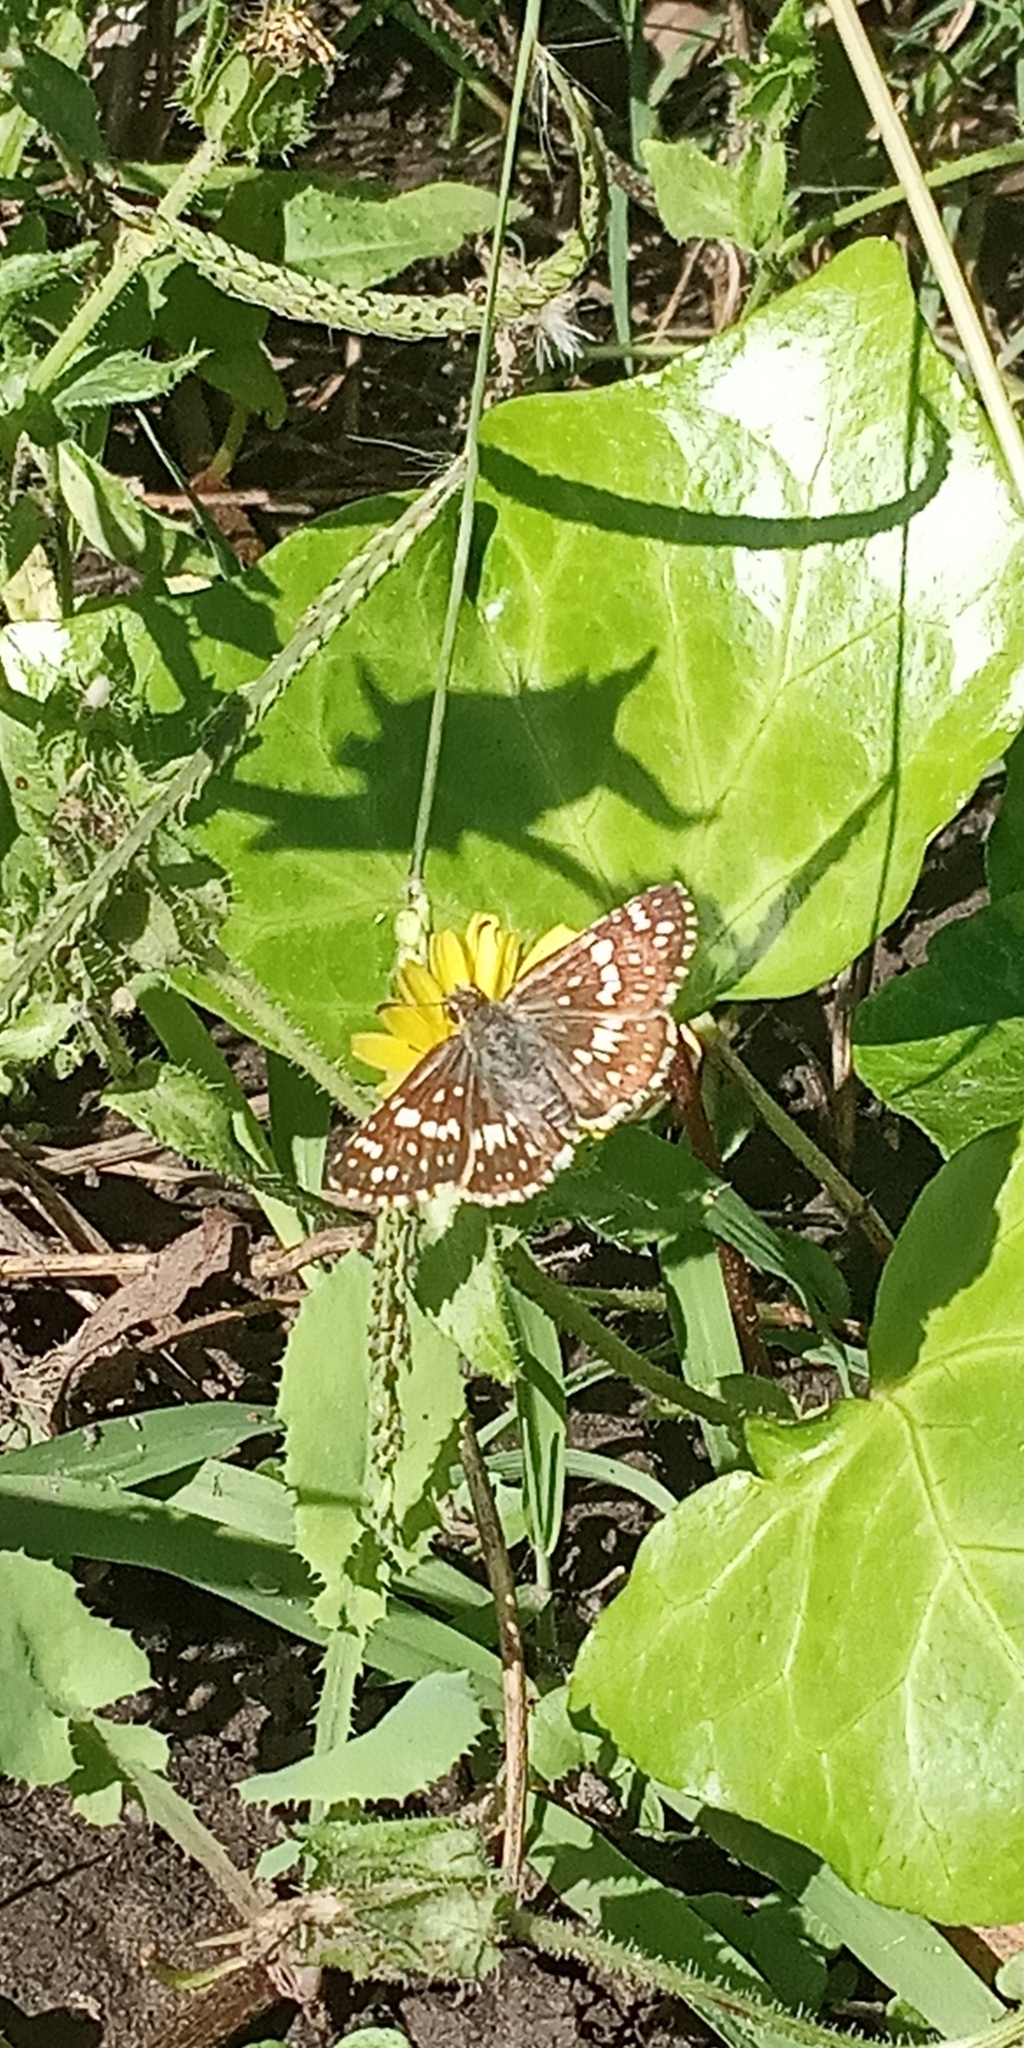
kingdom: Animalia
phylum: Arthropoda
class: Insecta
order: Lepidoptera
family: Hesperiidae
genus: Burnsius
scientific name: Burnsius orcynoides
